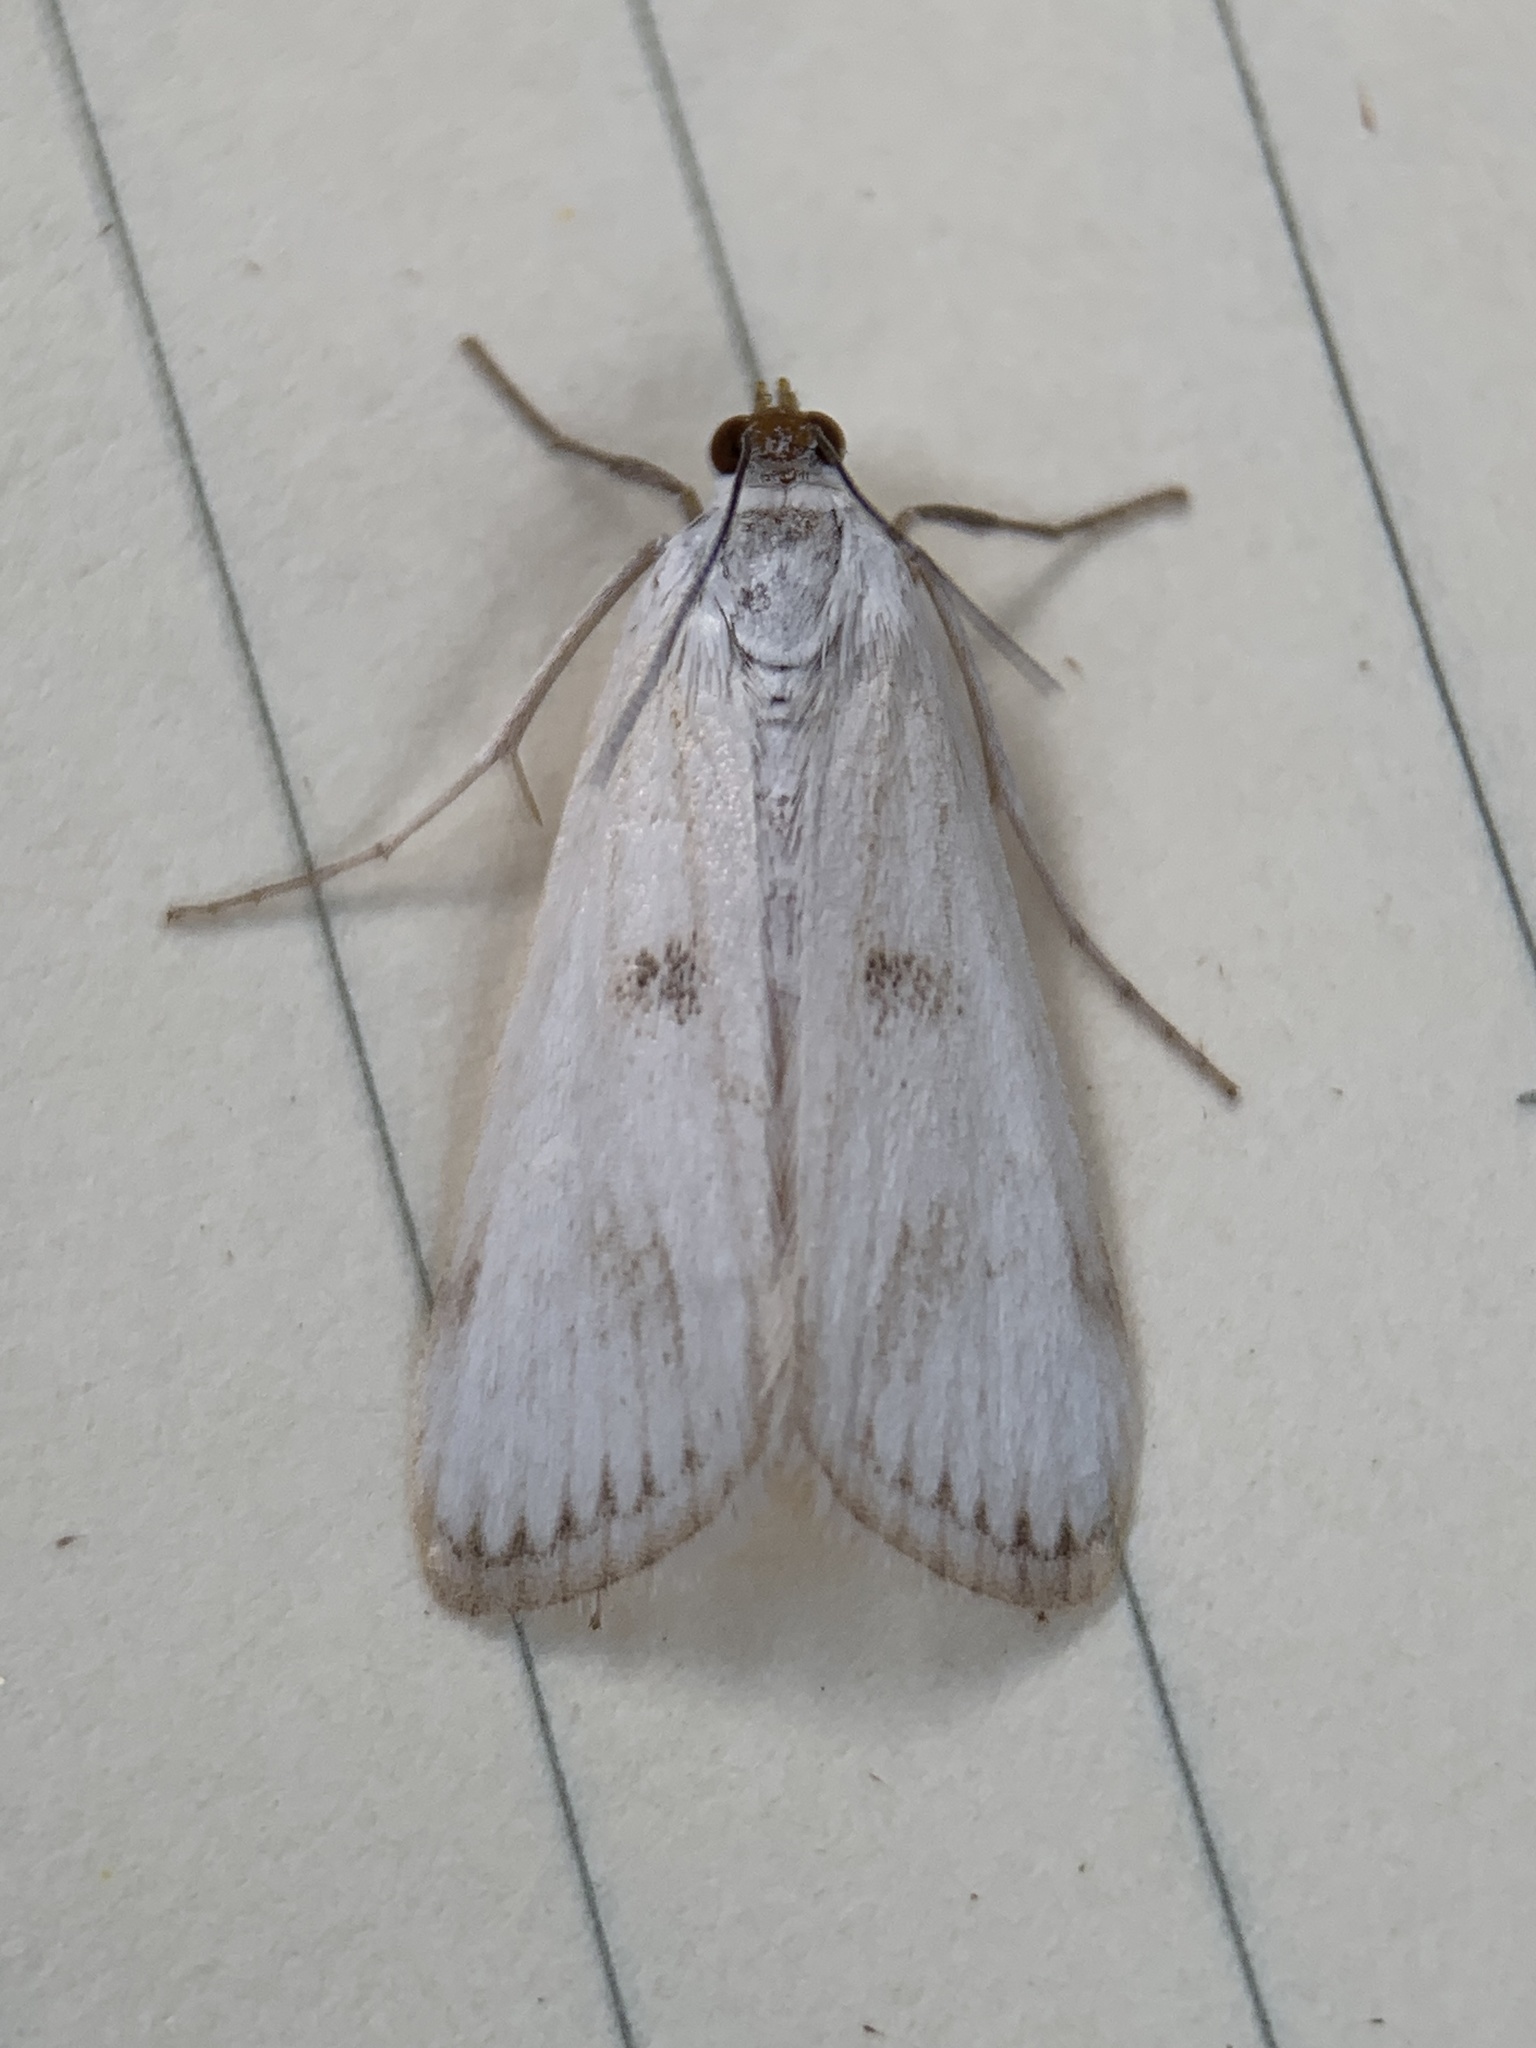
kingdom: Animalia
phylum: Arthropoda
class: Insecta
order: Lepidoptera
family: Crambidae
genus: Parapoynx
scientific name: Parapoynx maculalis
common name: Polymorphic pondweed moth
